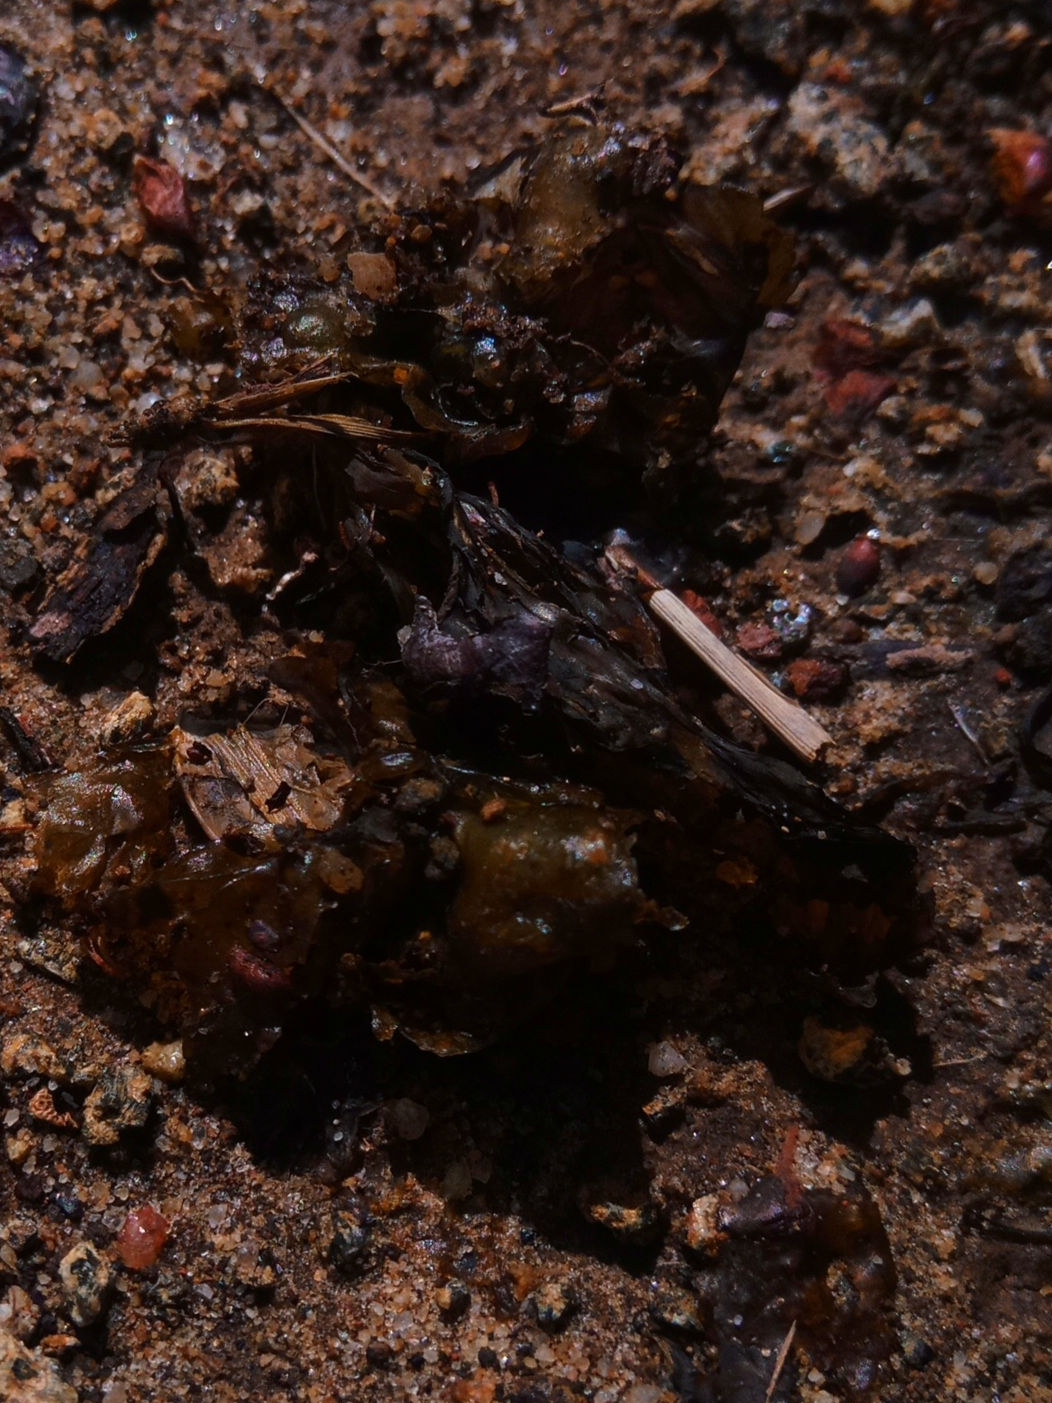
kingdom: Bacteria
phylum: Cyanobacteria
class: Cyanobacteriia
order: Cyanobacteriales
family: Nostocaceae
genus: Nostoc
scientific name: Nostoc commune
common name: Star jelly
